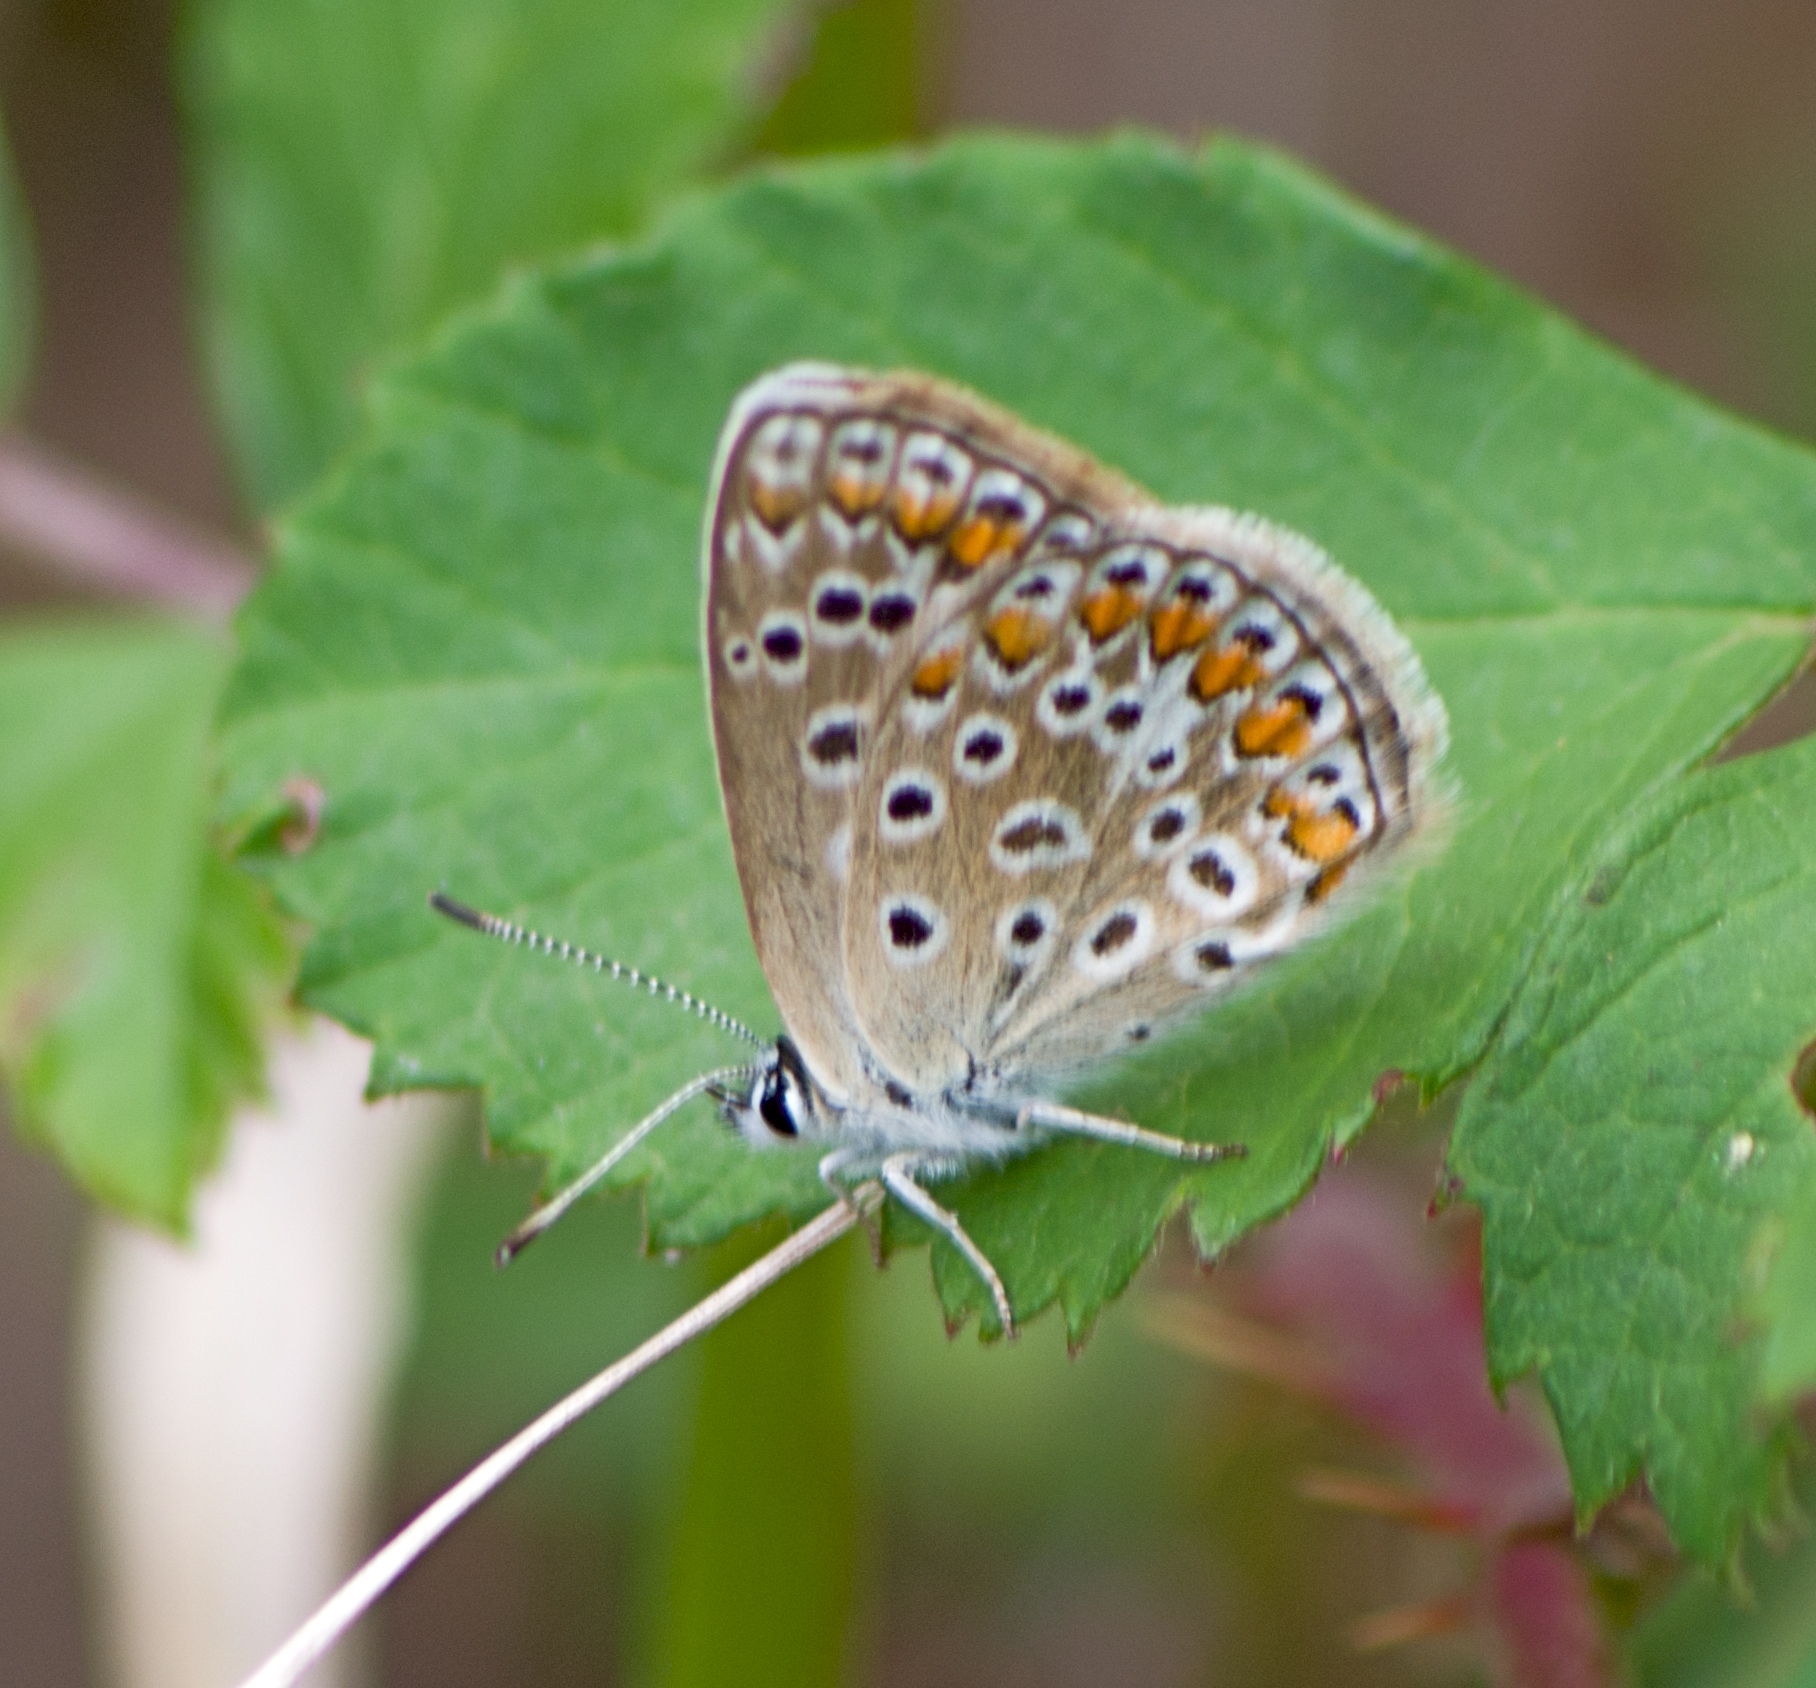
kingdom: Animalia
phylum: Arthropoda
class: Insecta
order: Lepidoptera
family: Lycaenidae
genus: Polyommatus
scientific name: Polyommatus icarus
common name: Common blue
